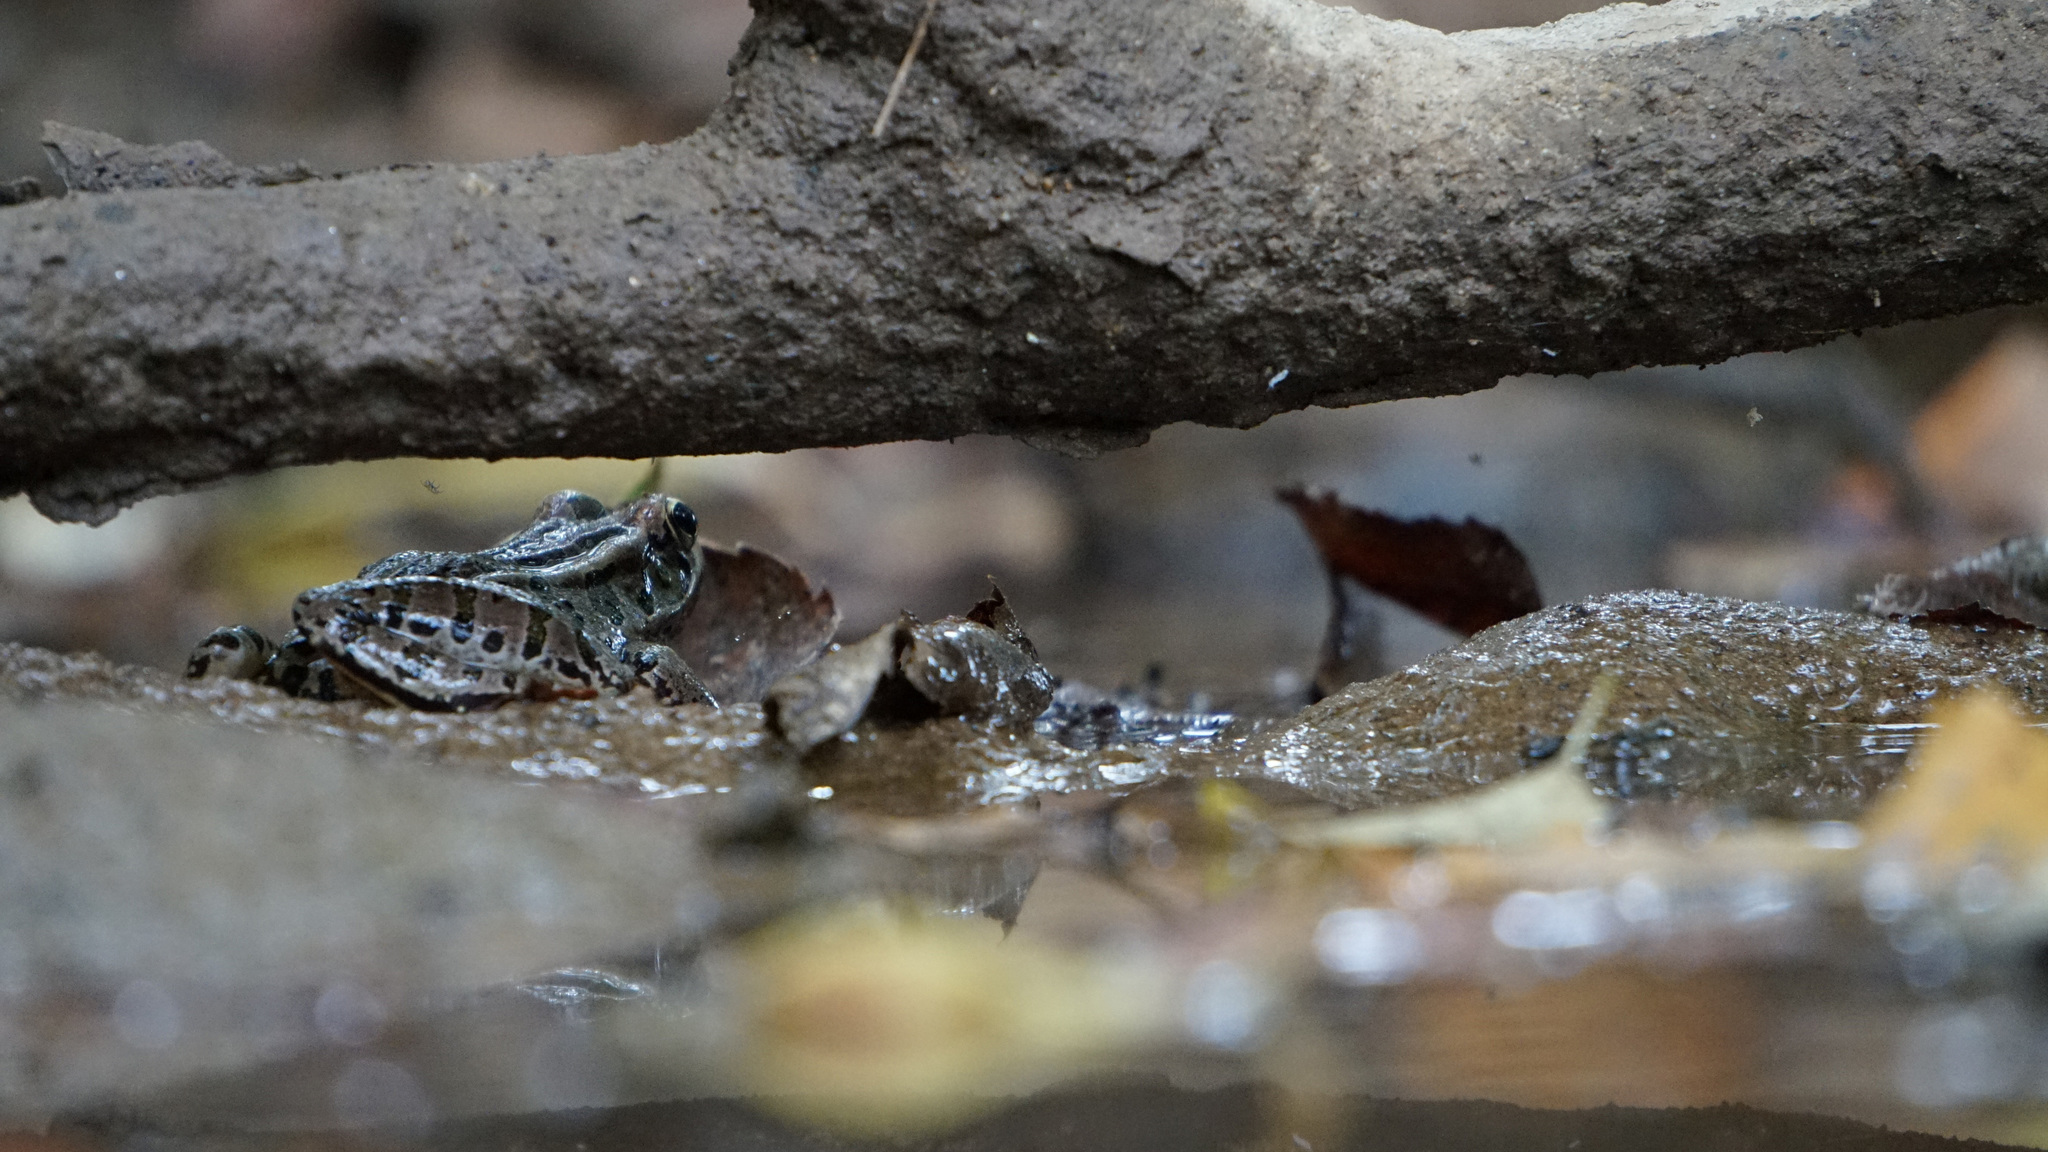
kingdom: Animalia
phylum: Chordata
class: Amphibia
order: Anura
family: Ranidae
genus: Lithobates
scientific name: Lithobates palustris
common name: Pickerel frog
